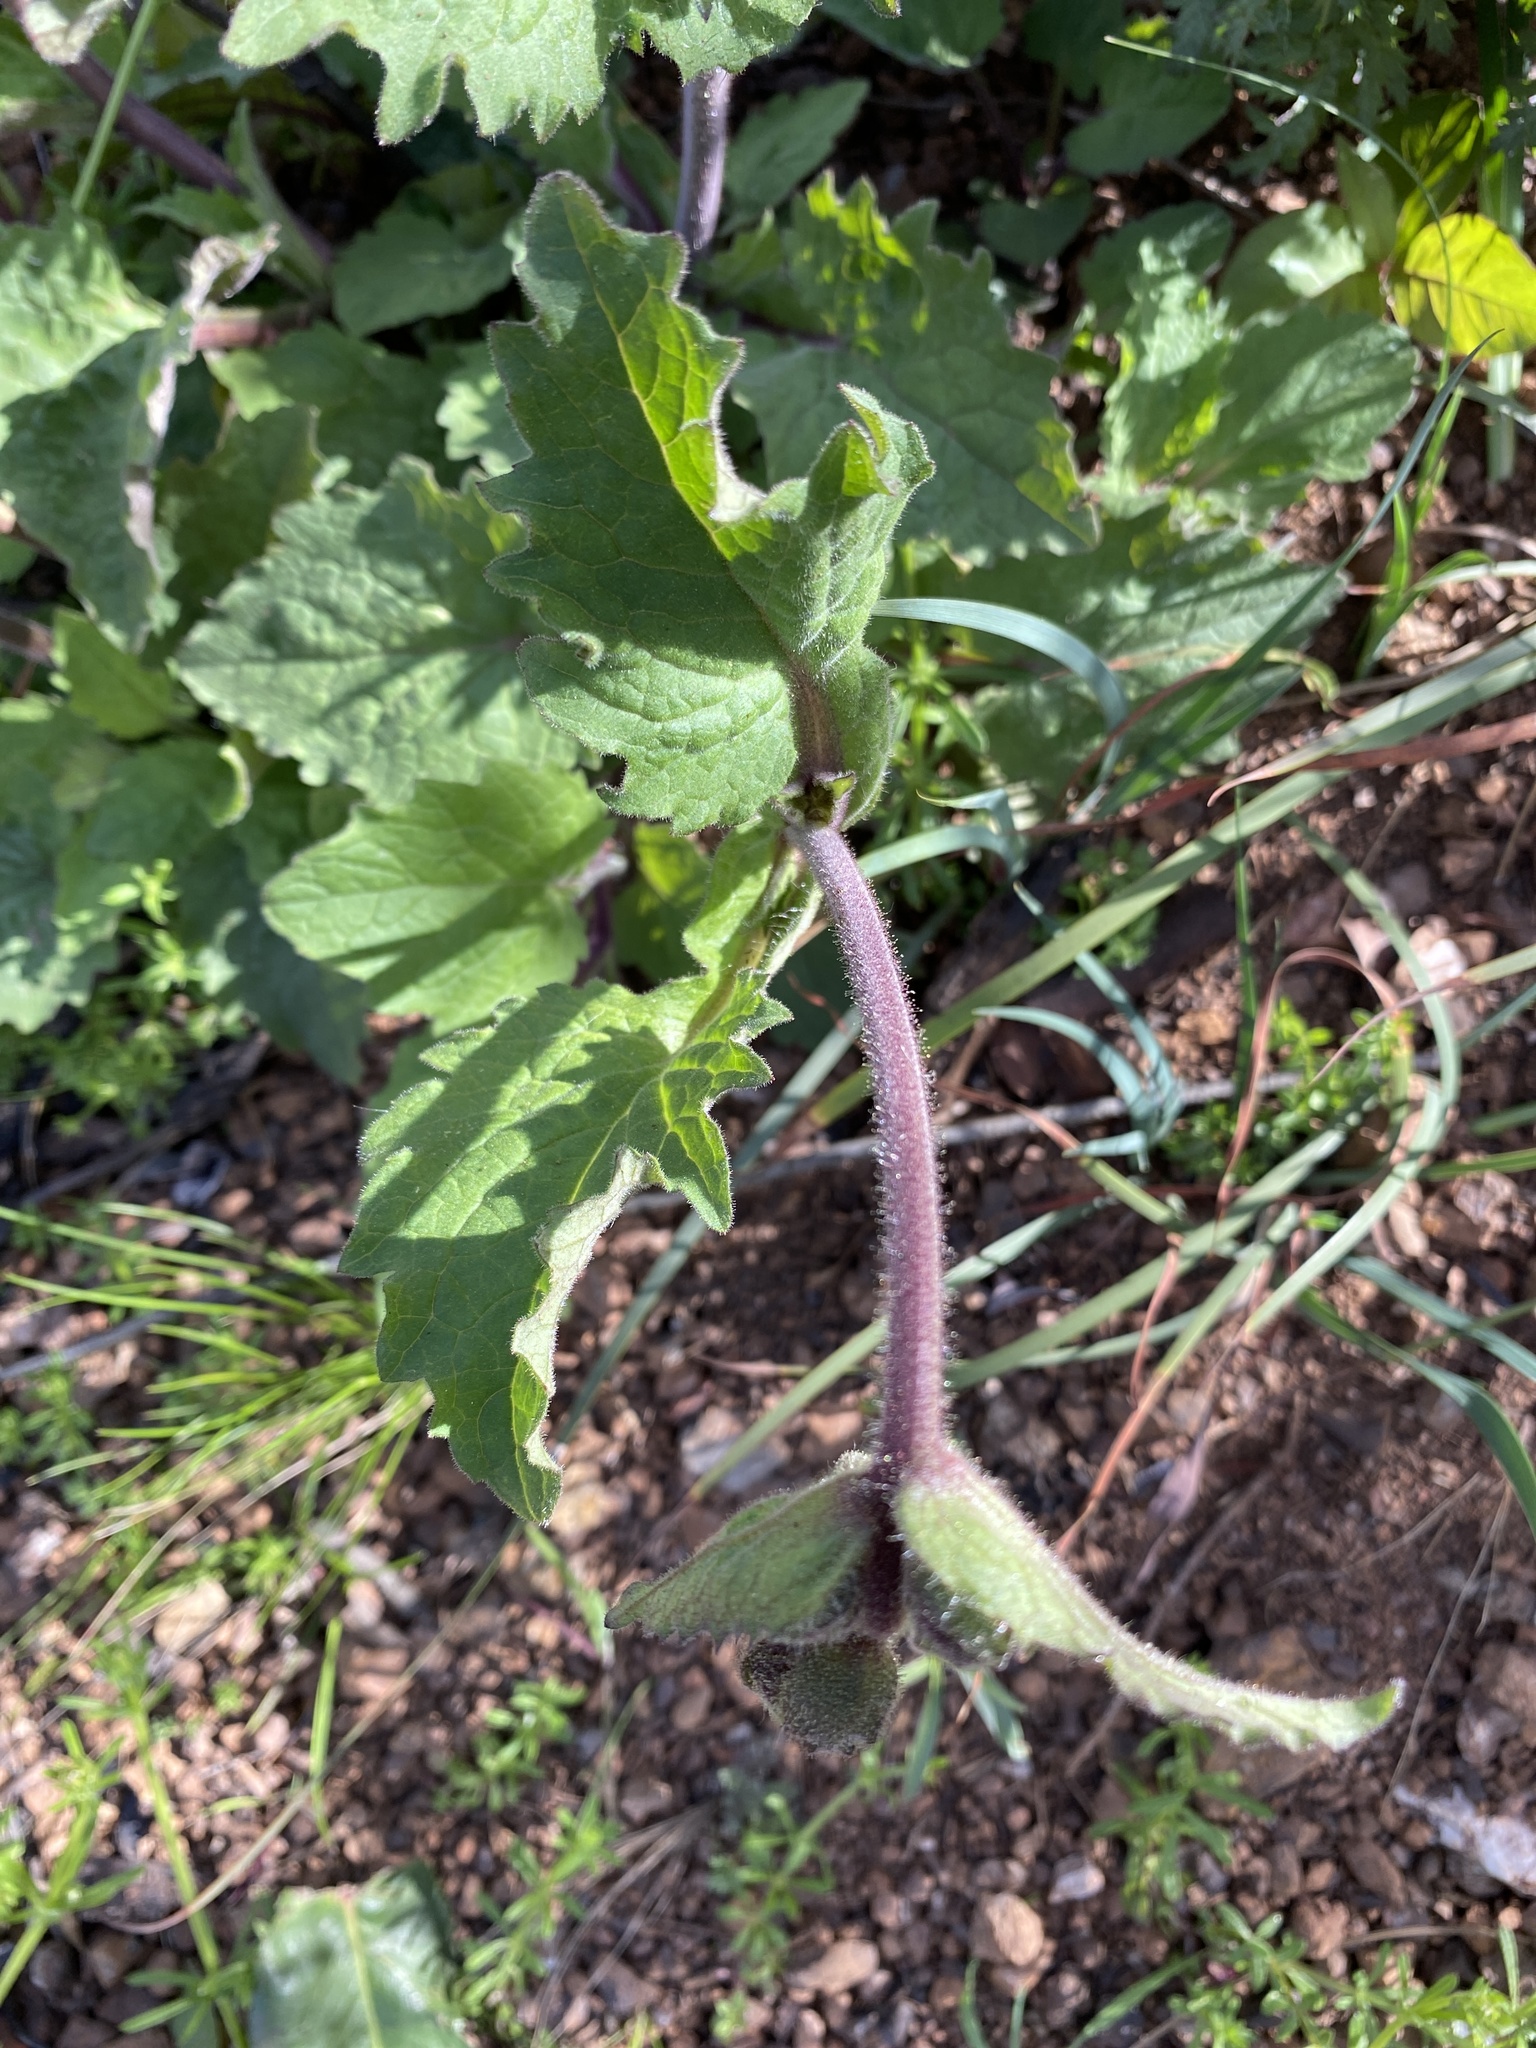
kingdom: Plantae
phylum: Tracheophyta
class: Magnoliopsida
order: Asterales
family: Asteraceae
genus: Arnica
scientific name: Arnica discoidea
